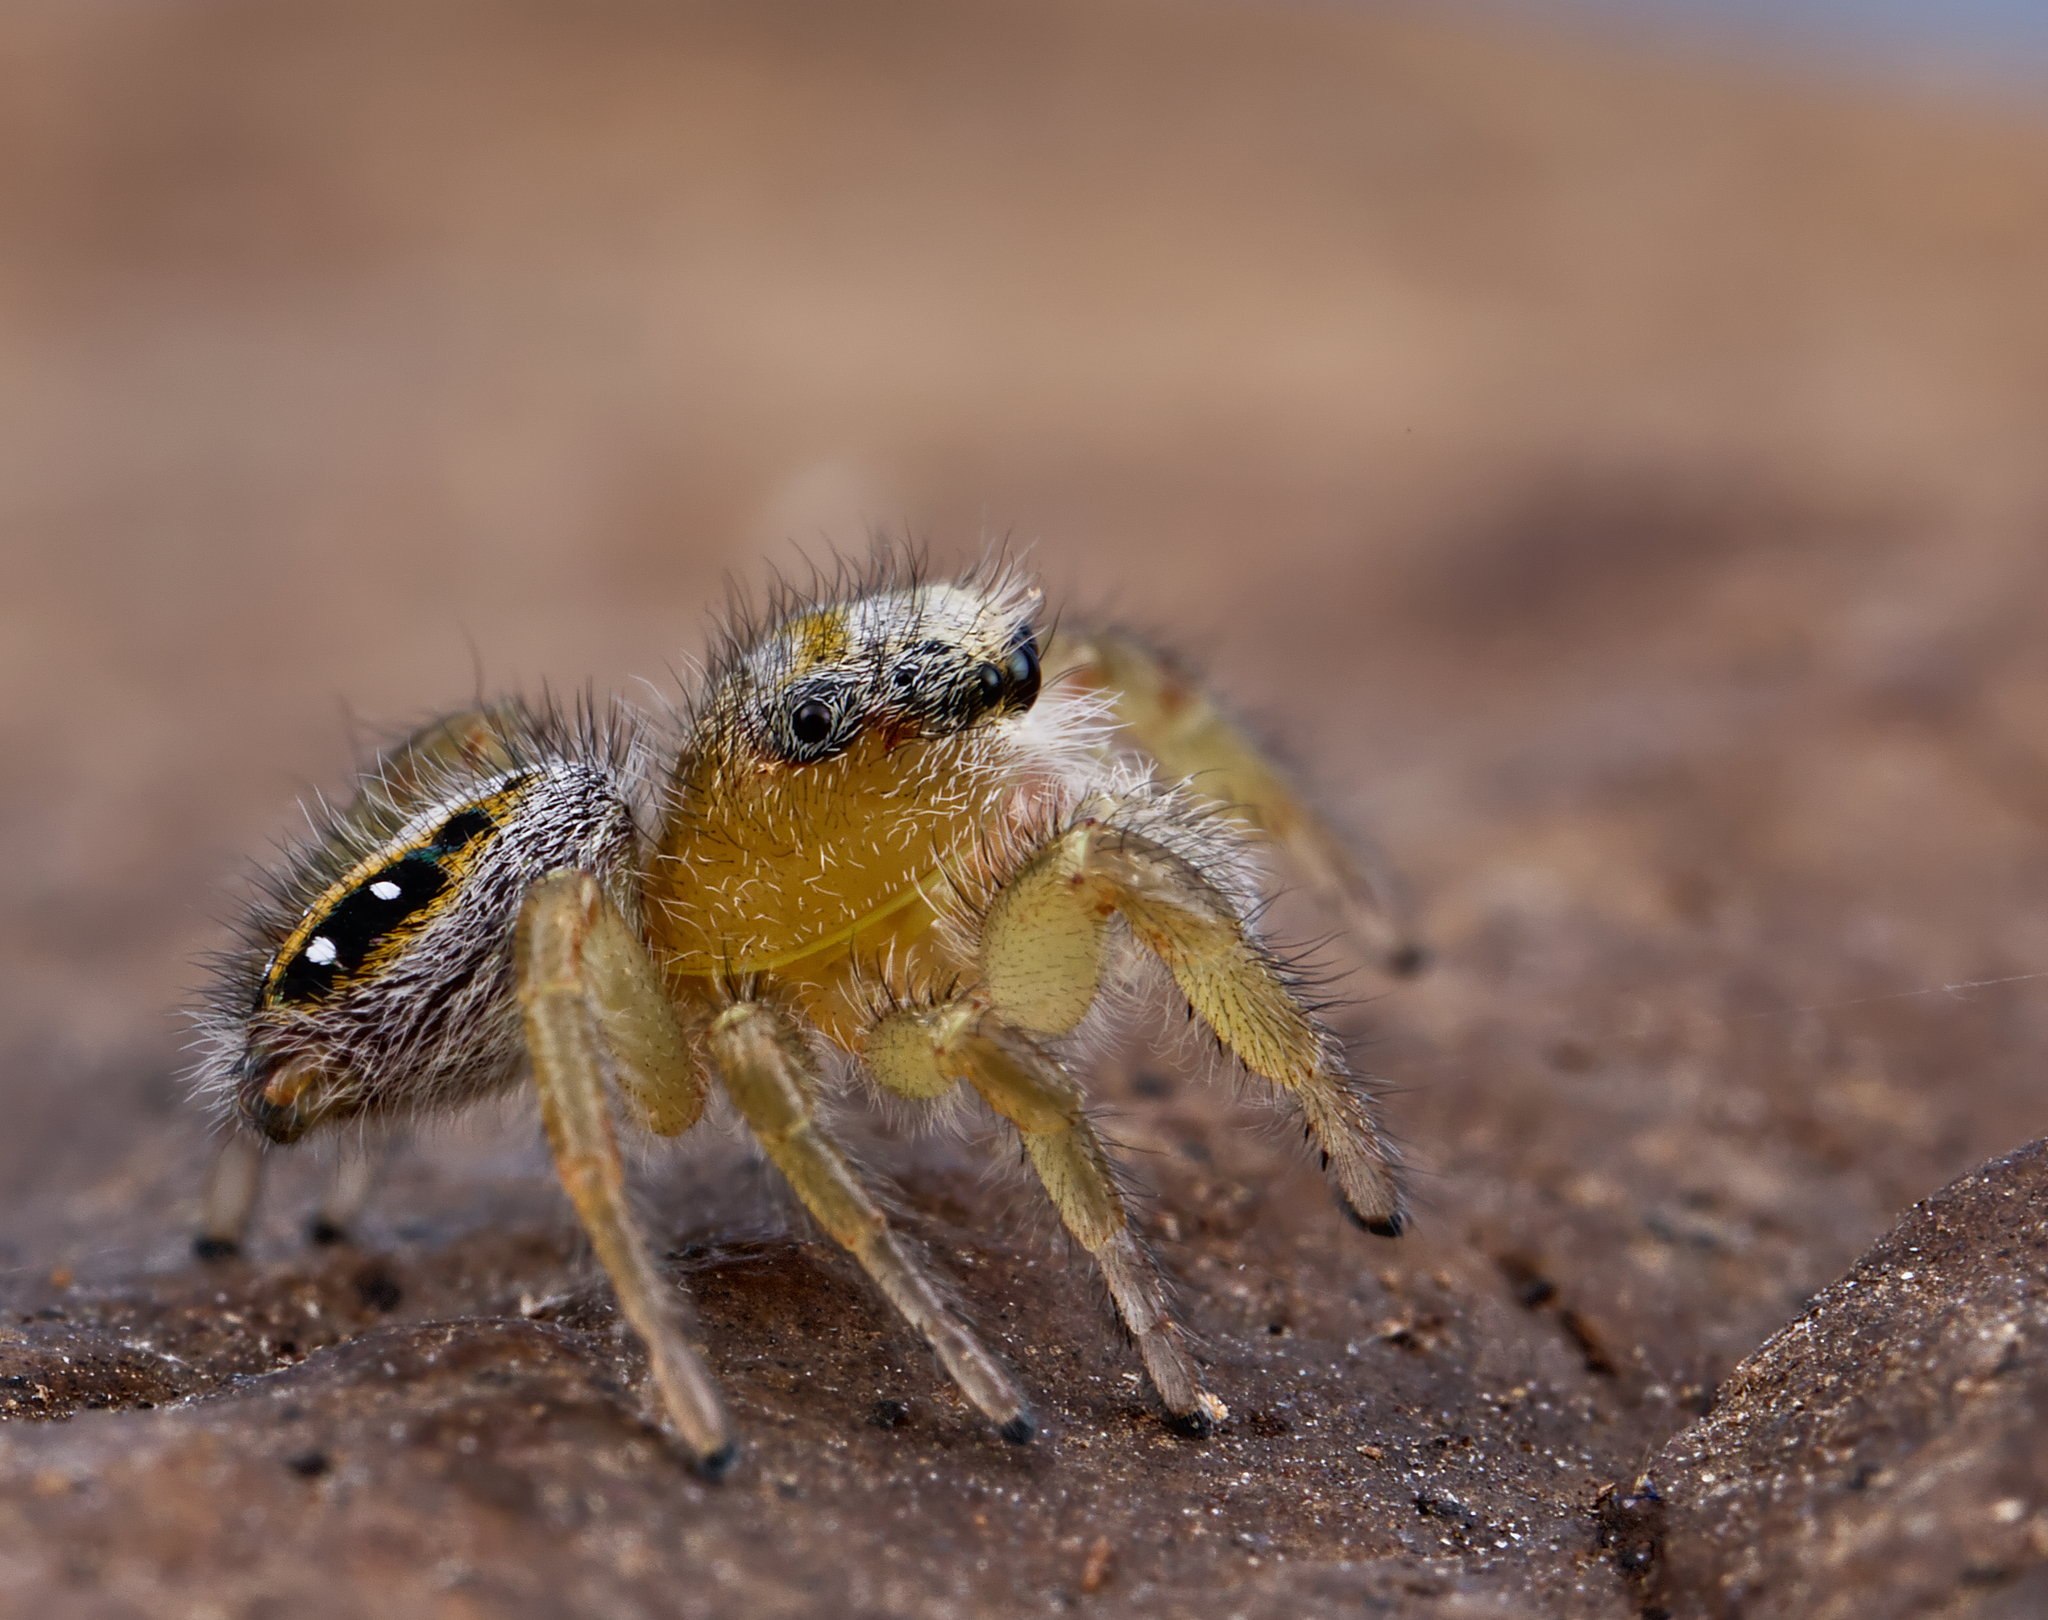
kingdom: Animalia
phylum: Arthropoda
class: Arachnida
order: Araneae
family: Salticidae
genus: Phidippus
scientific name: Phidippus pius
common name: Jumping spiders
